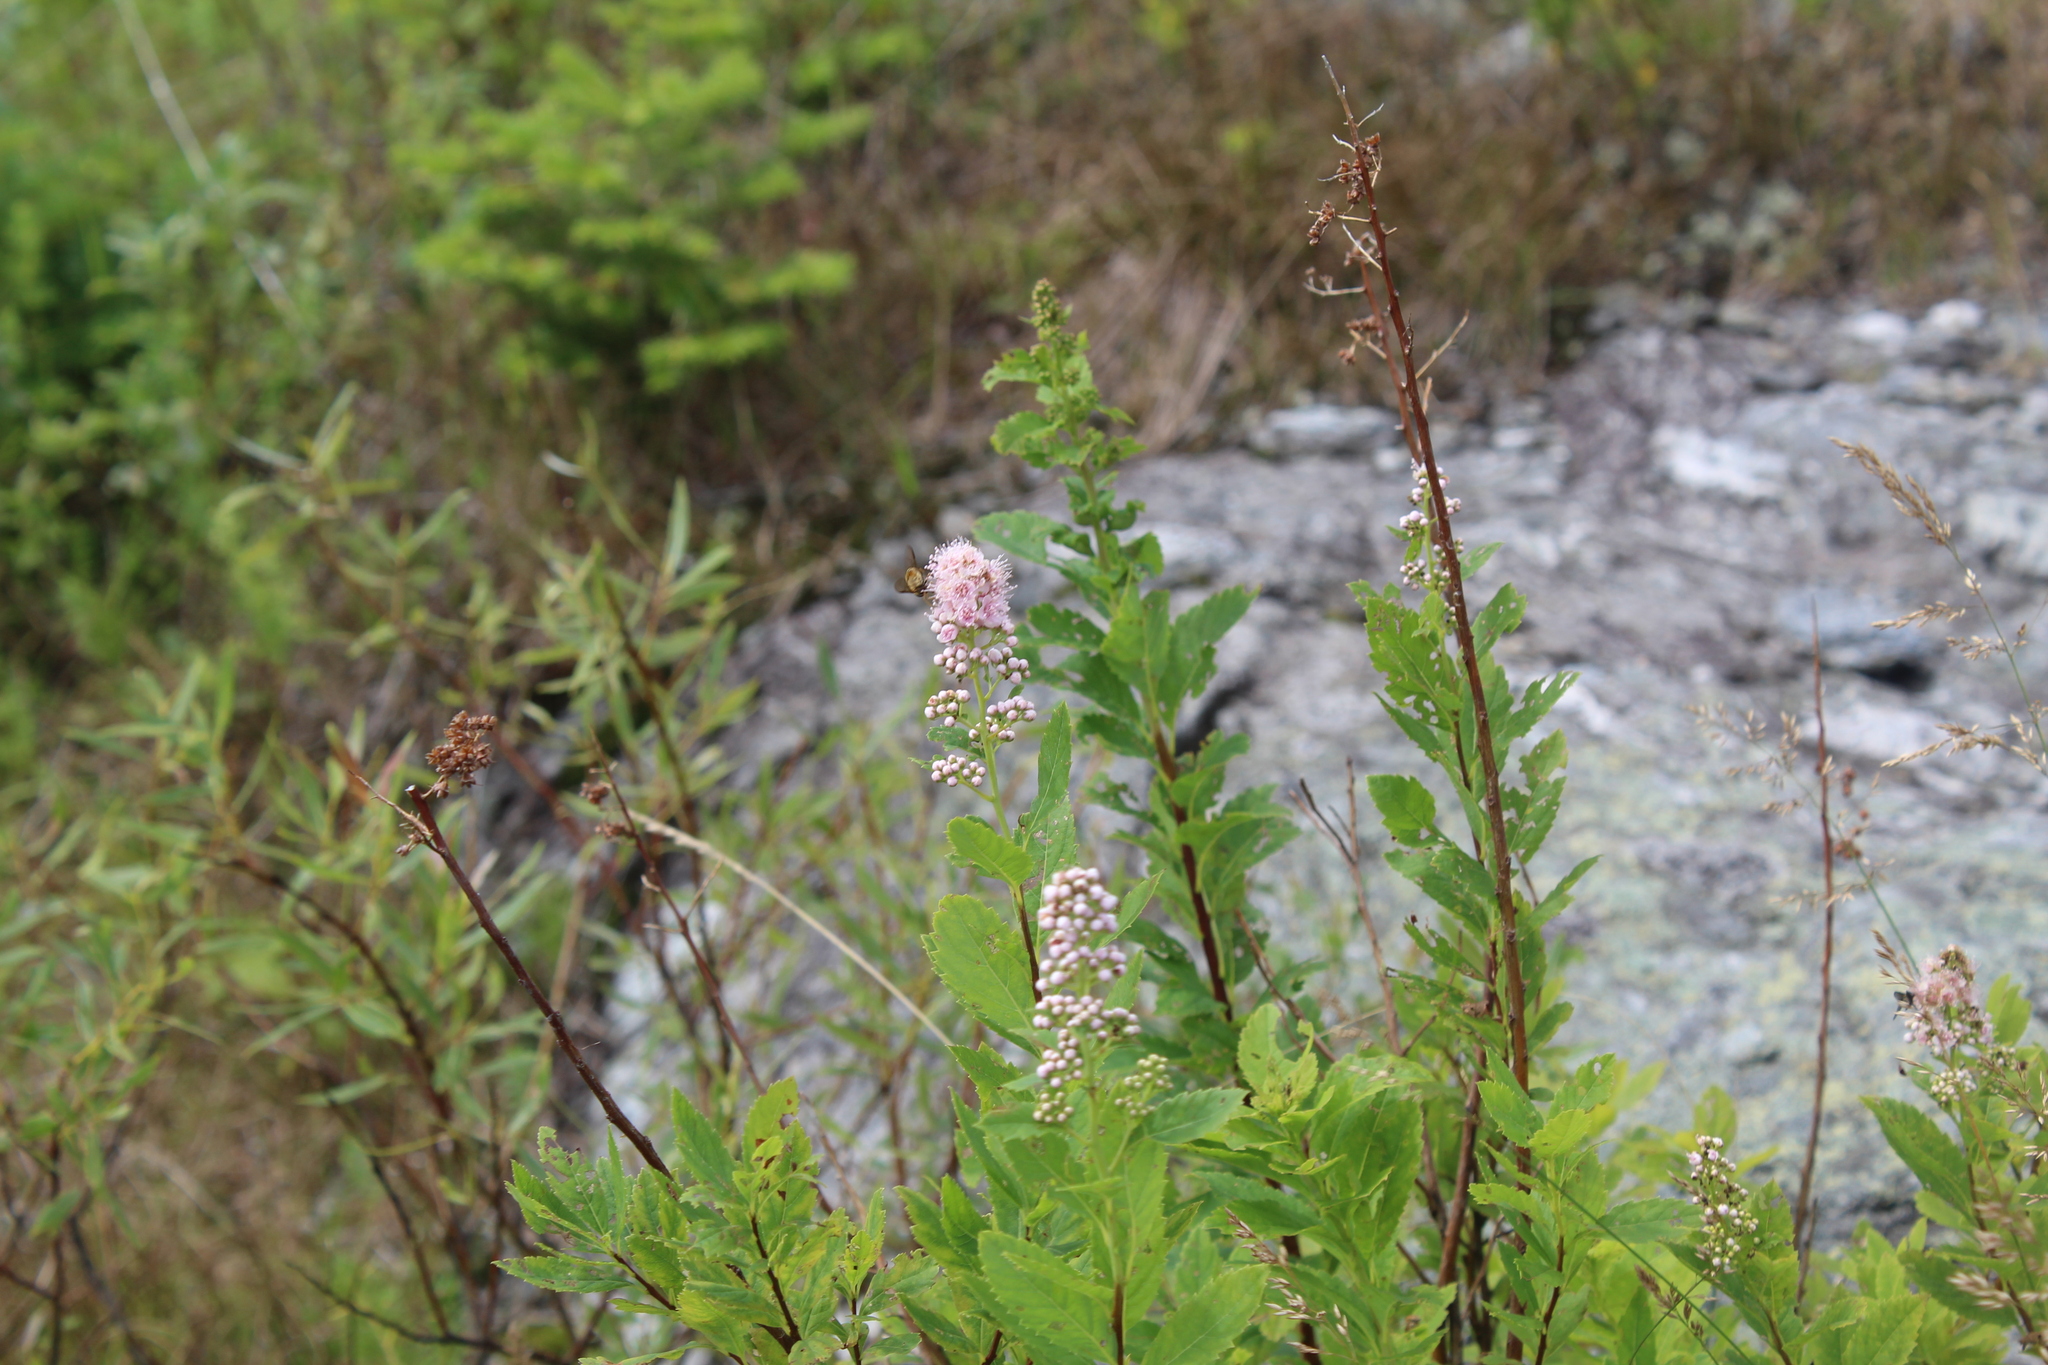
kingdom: Plantae
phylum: Tracheophyta
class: Magnoliopsida
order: Rosales
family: Rosaceae
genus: Spiraea
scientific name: Spiraea alba
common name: Pale bridewort
